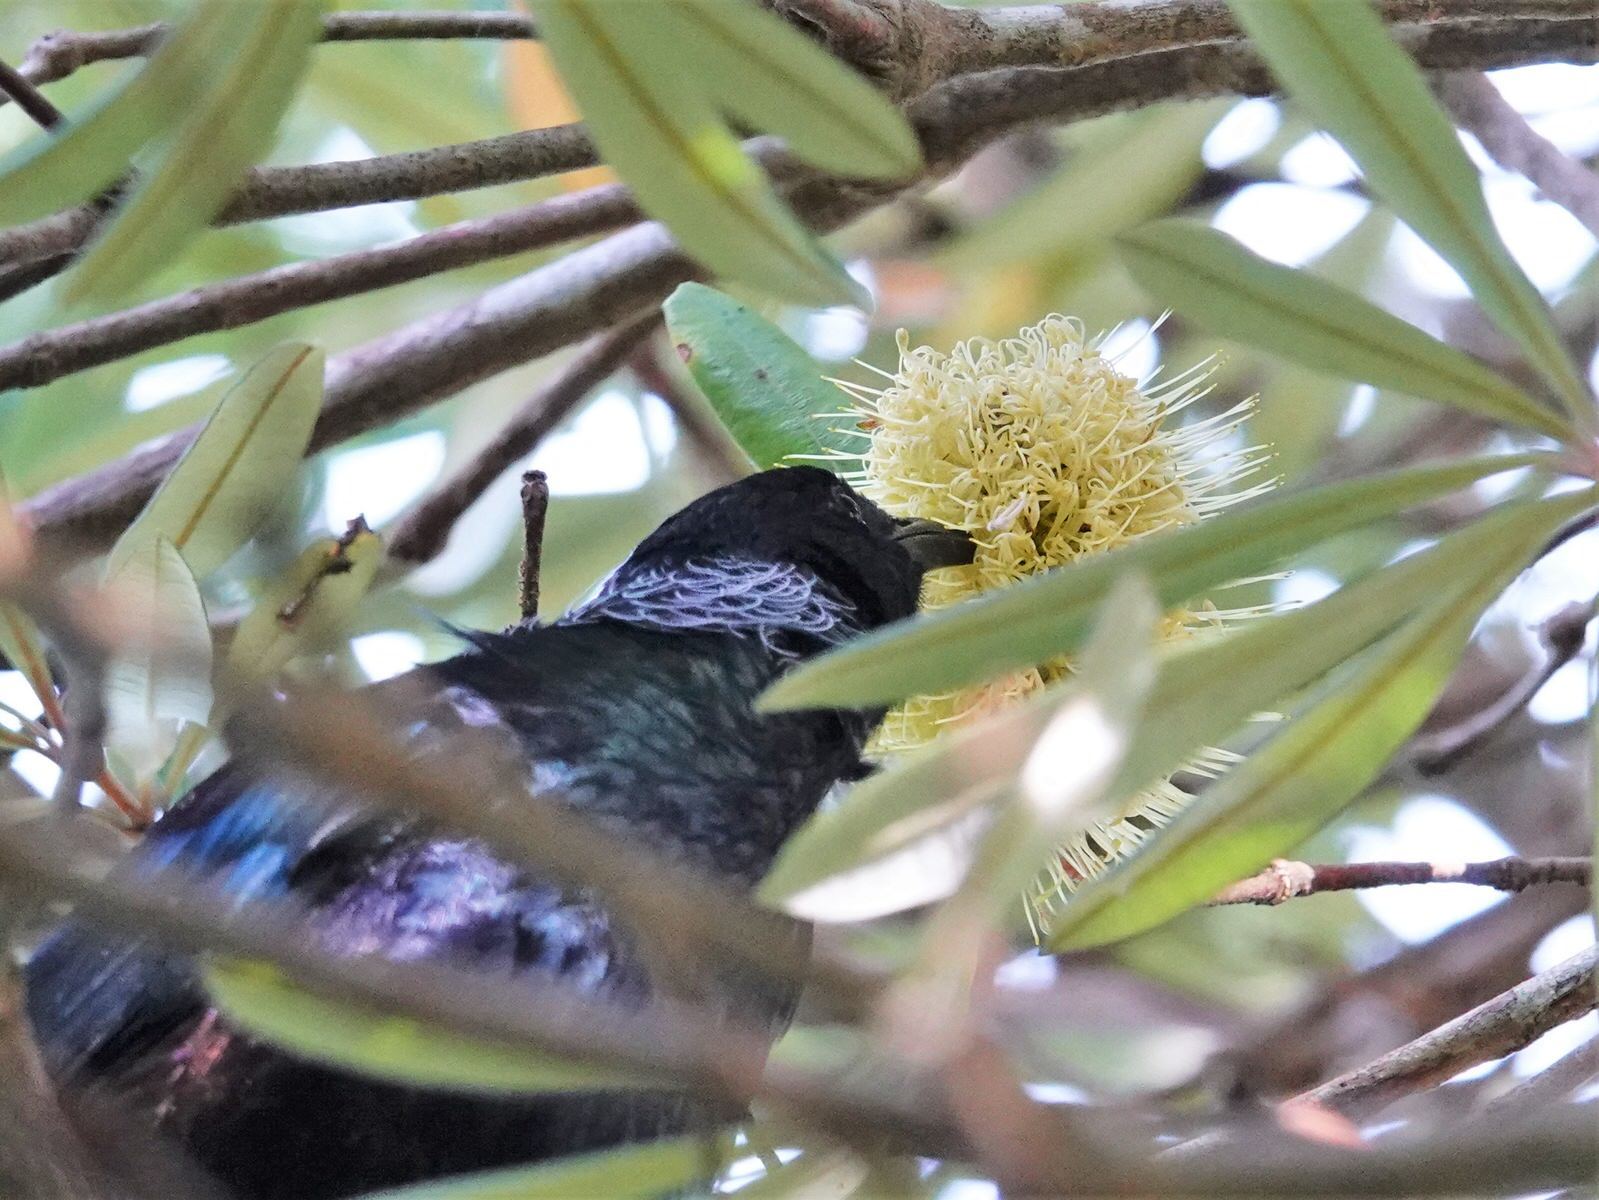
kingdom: Animalia
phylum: Chordata
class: Aves
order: Passeriformes
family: Meliphagidae
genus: Prosthemadera
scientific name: Prosthemadera novaeseelandiae
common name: Tui
